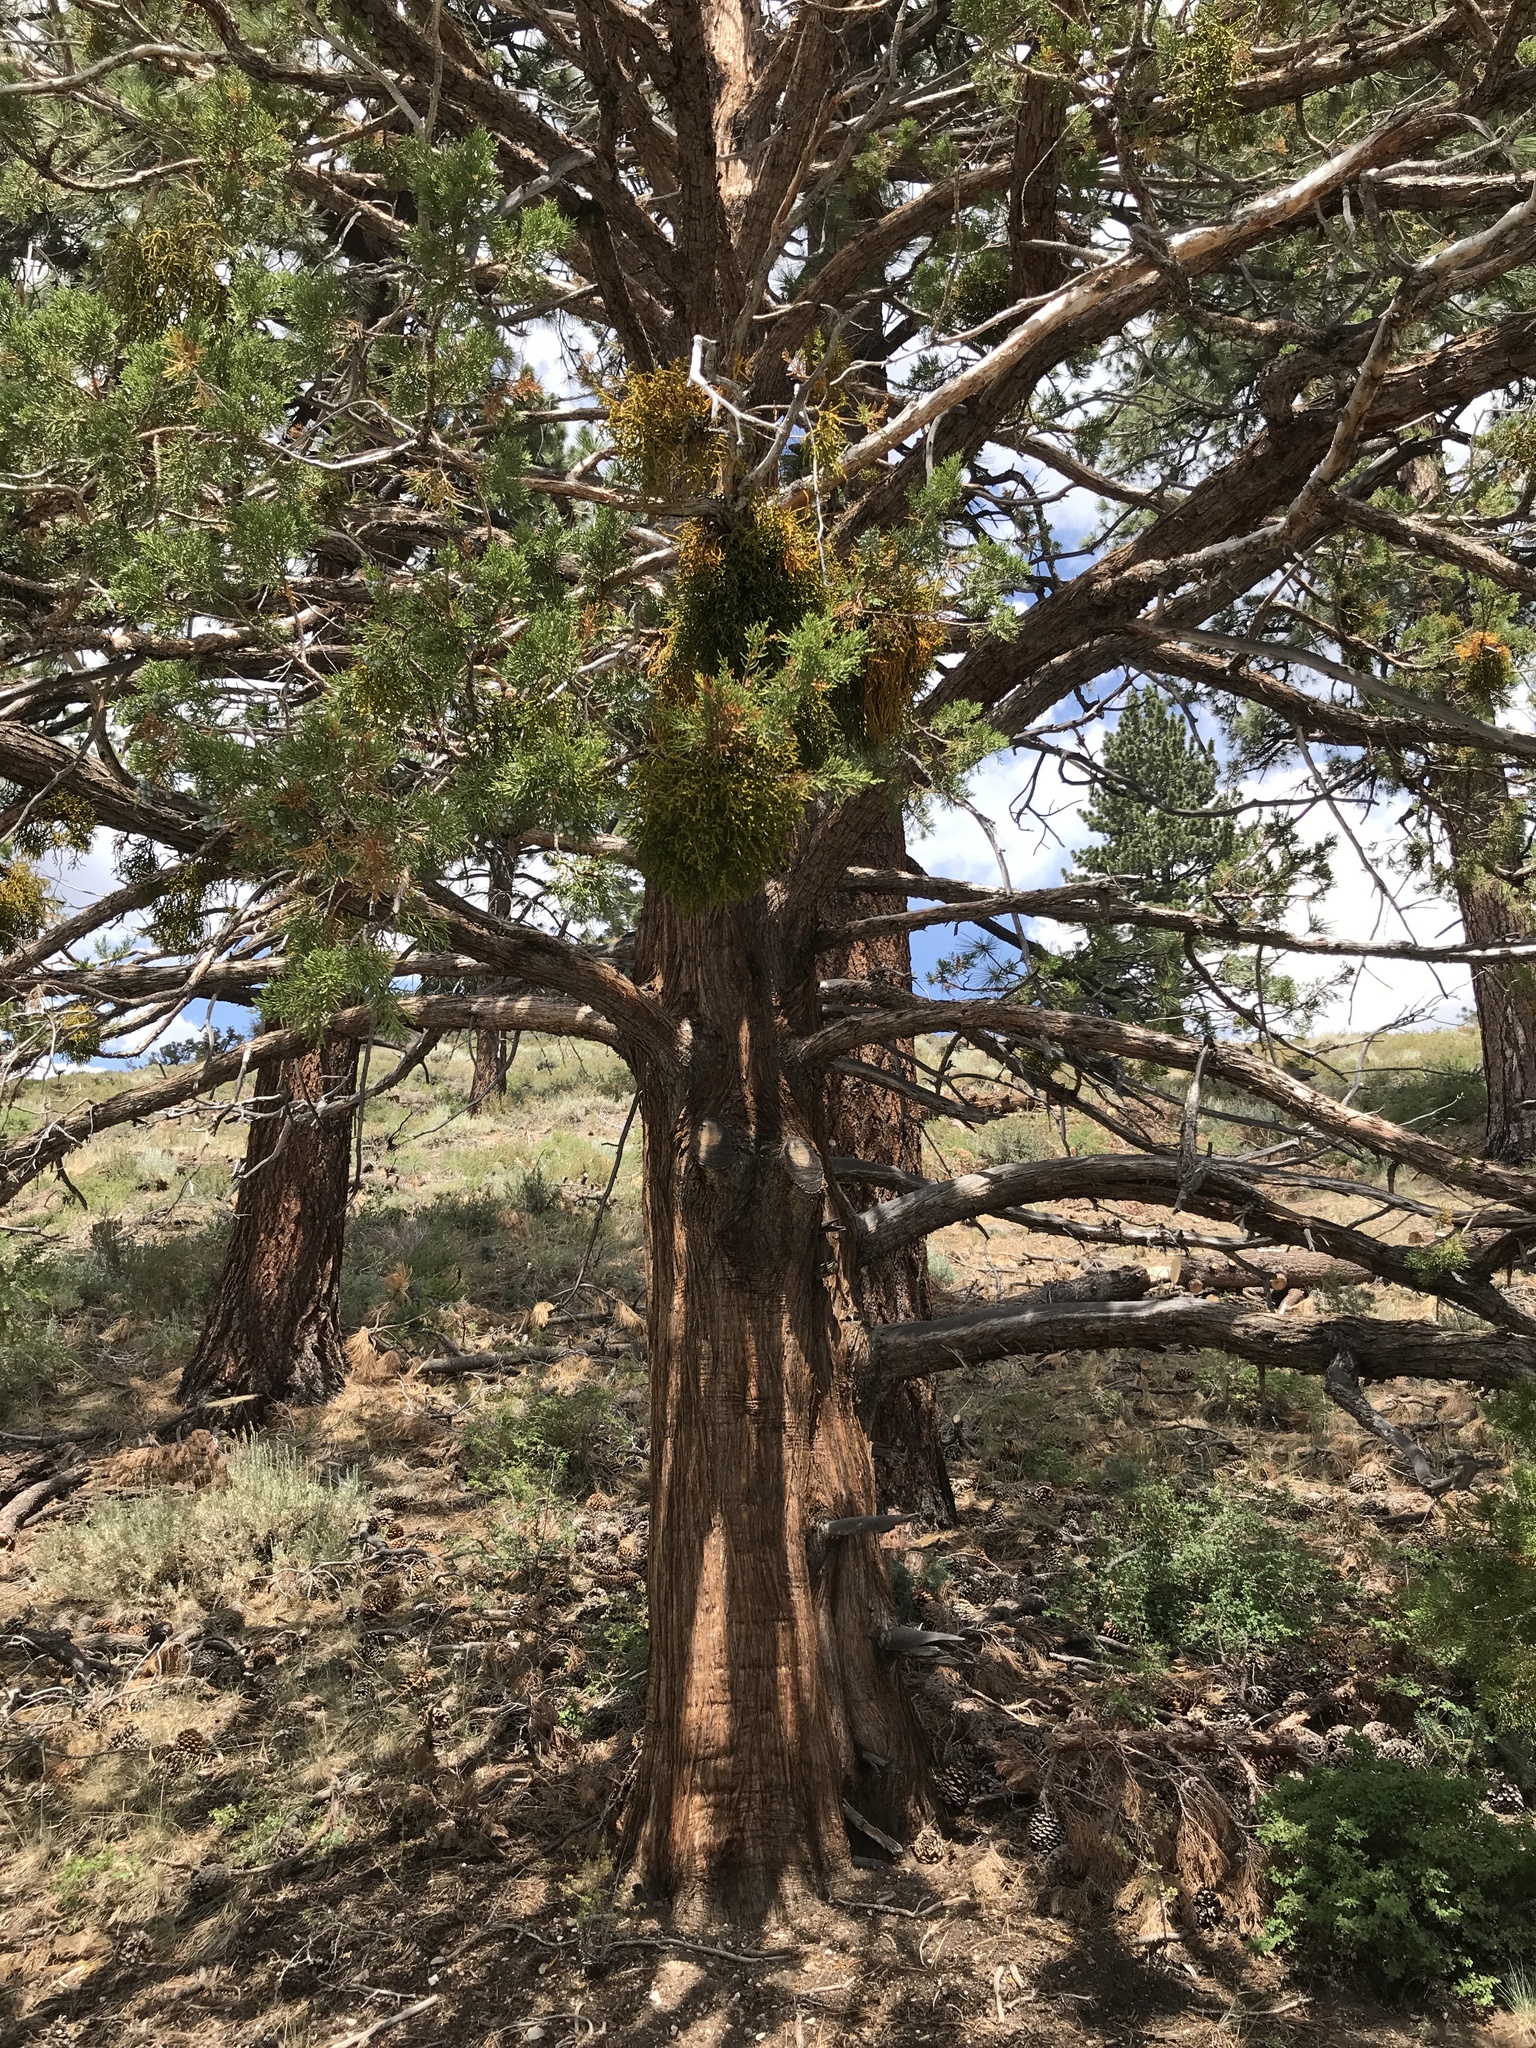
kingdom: Plantae
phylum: Tracheophyta
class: Pinopsida
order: Pinales
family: Cupressaceae
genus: Juniperus
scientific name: Juniperus occidentalis
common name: Western juniper
